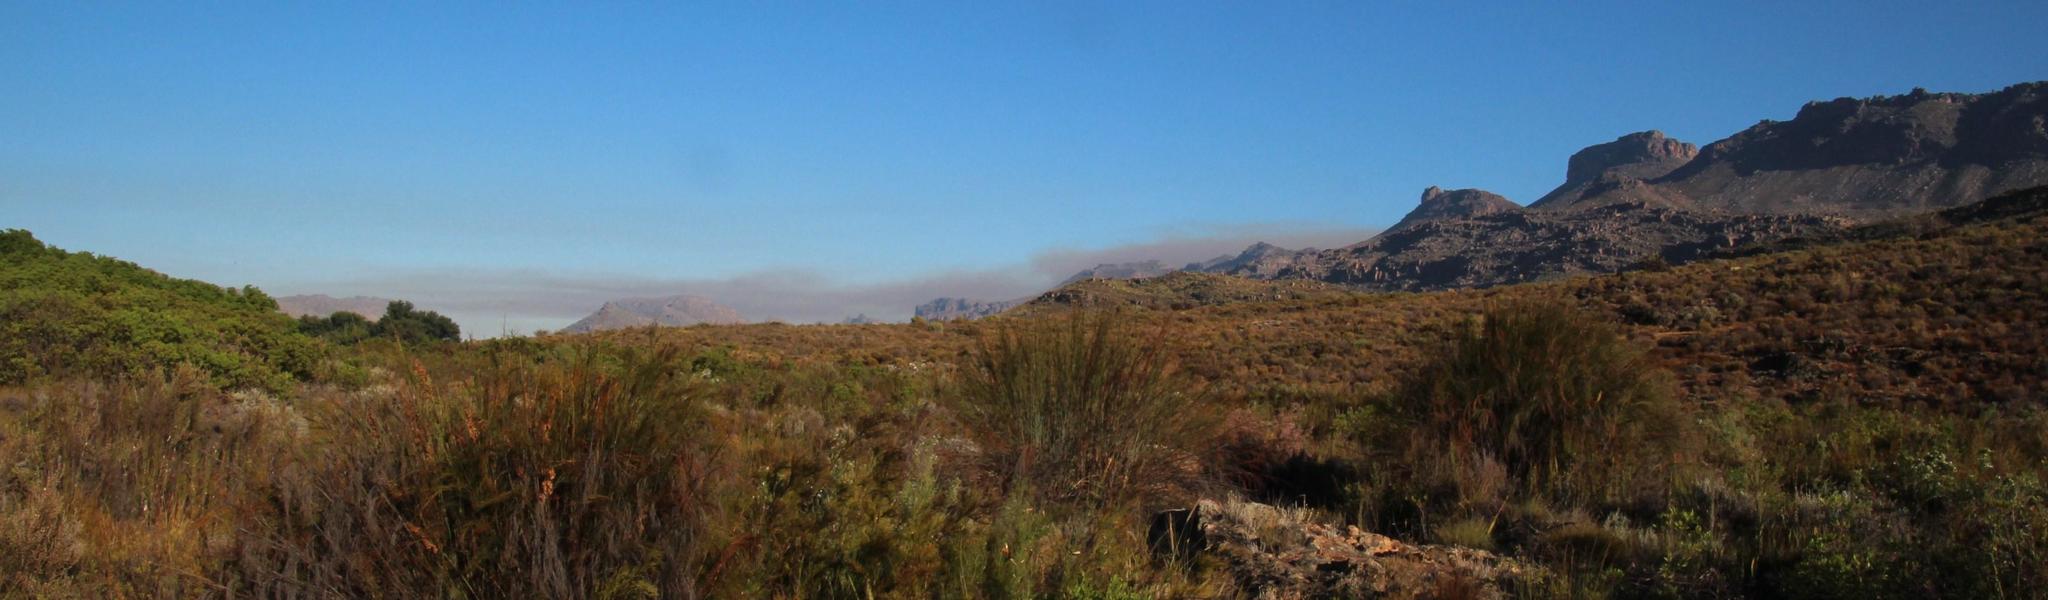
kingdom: Plantae
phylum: Tracheophyta
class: Liliopsida
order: Poales
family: Restionaceae
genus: Cannomois
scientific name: Cannomois robusta
